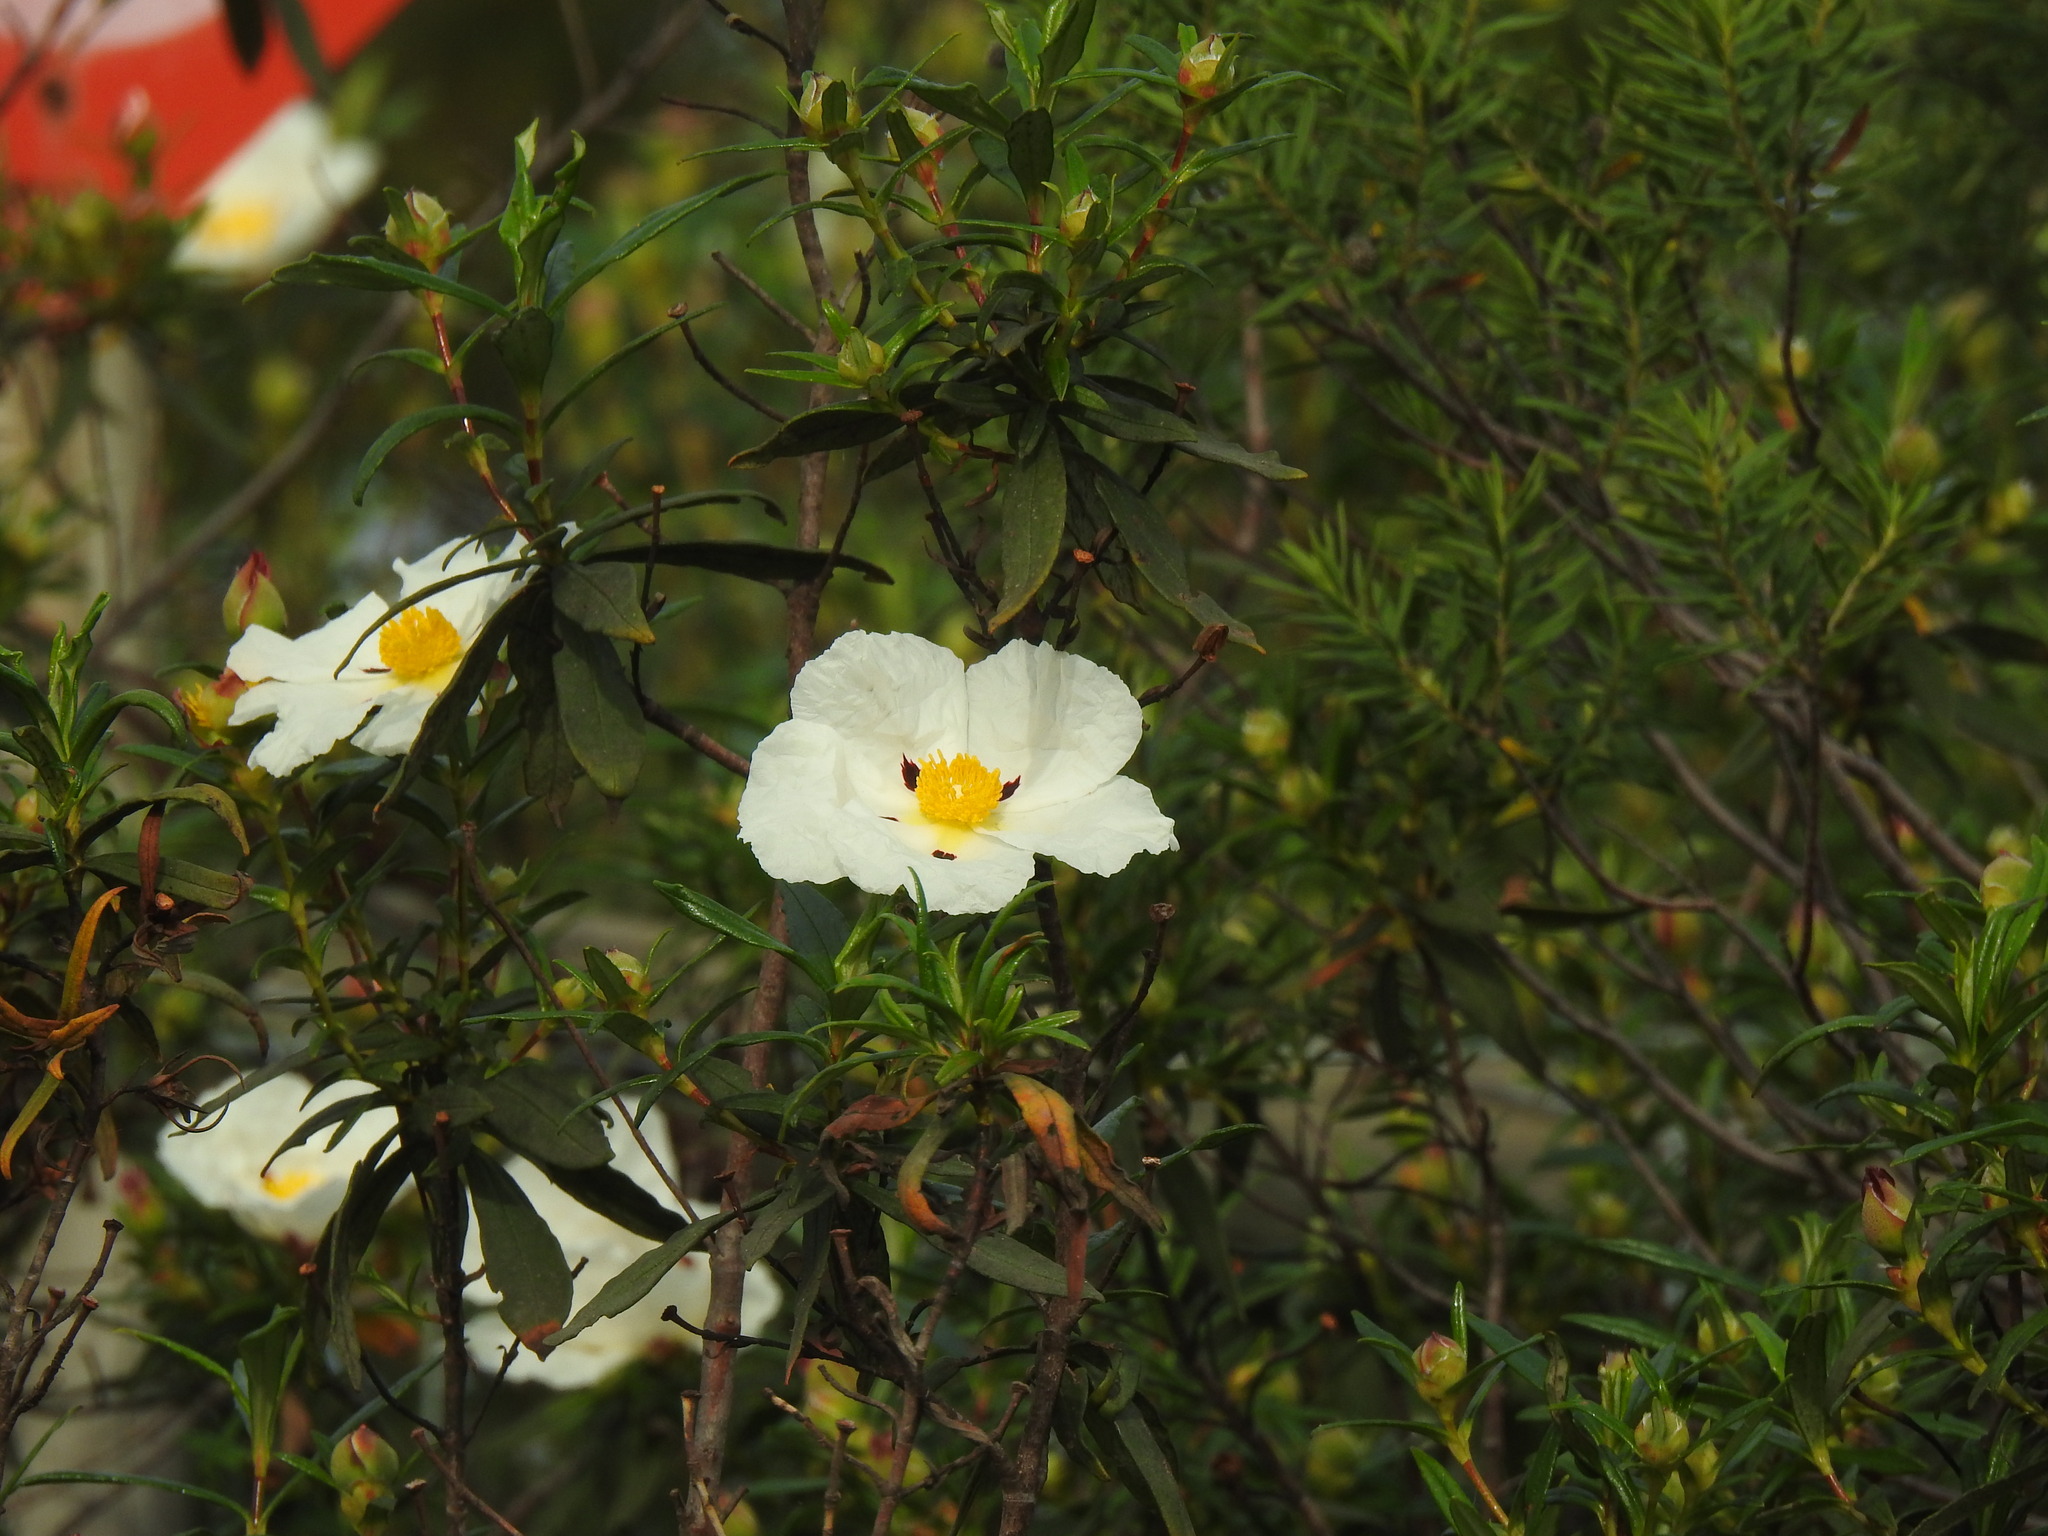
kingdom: Plantae
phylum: Tracheophyta
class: Magnoliopsida
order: Malvales
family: Cistaceae
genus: Cistus
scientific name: Cistus ladanifer
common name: Common gum cistus
